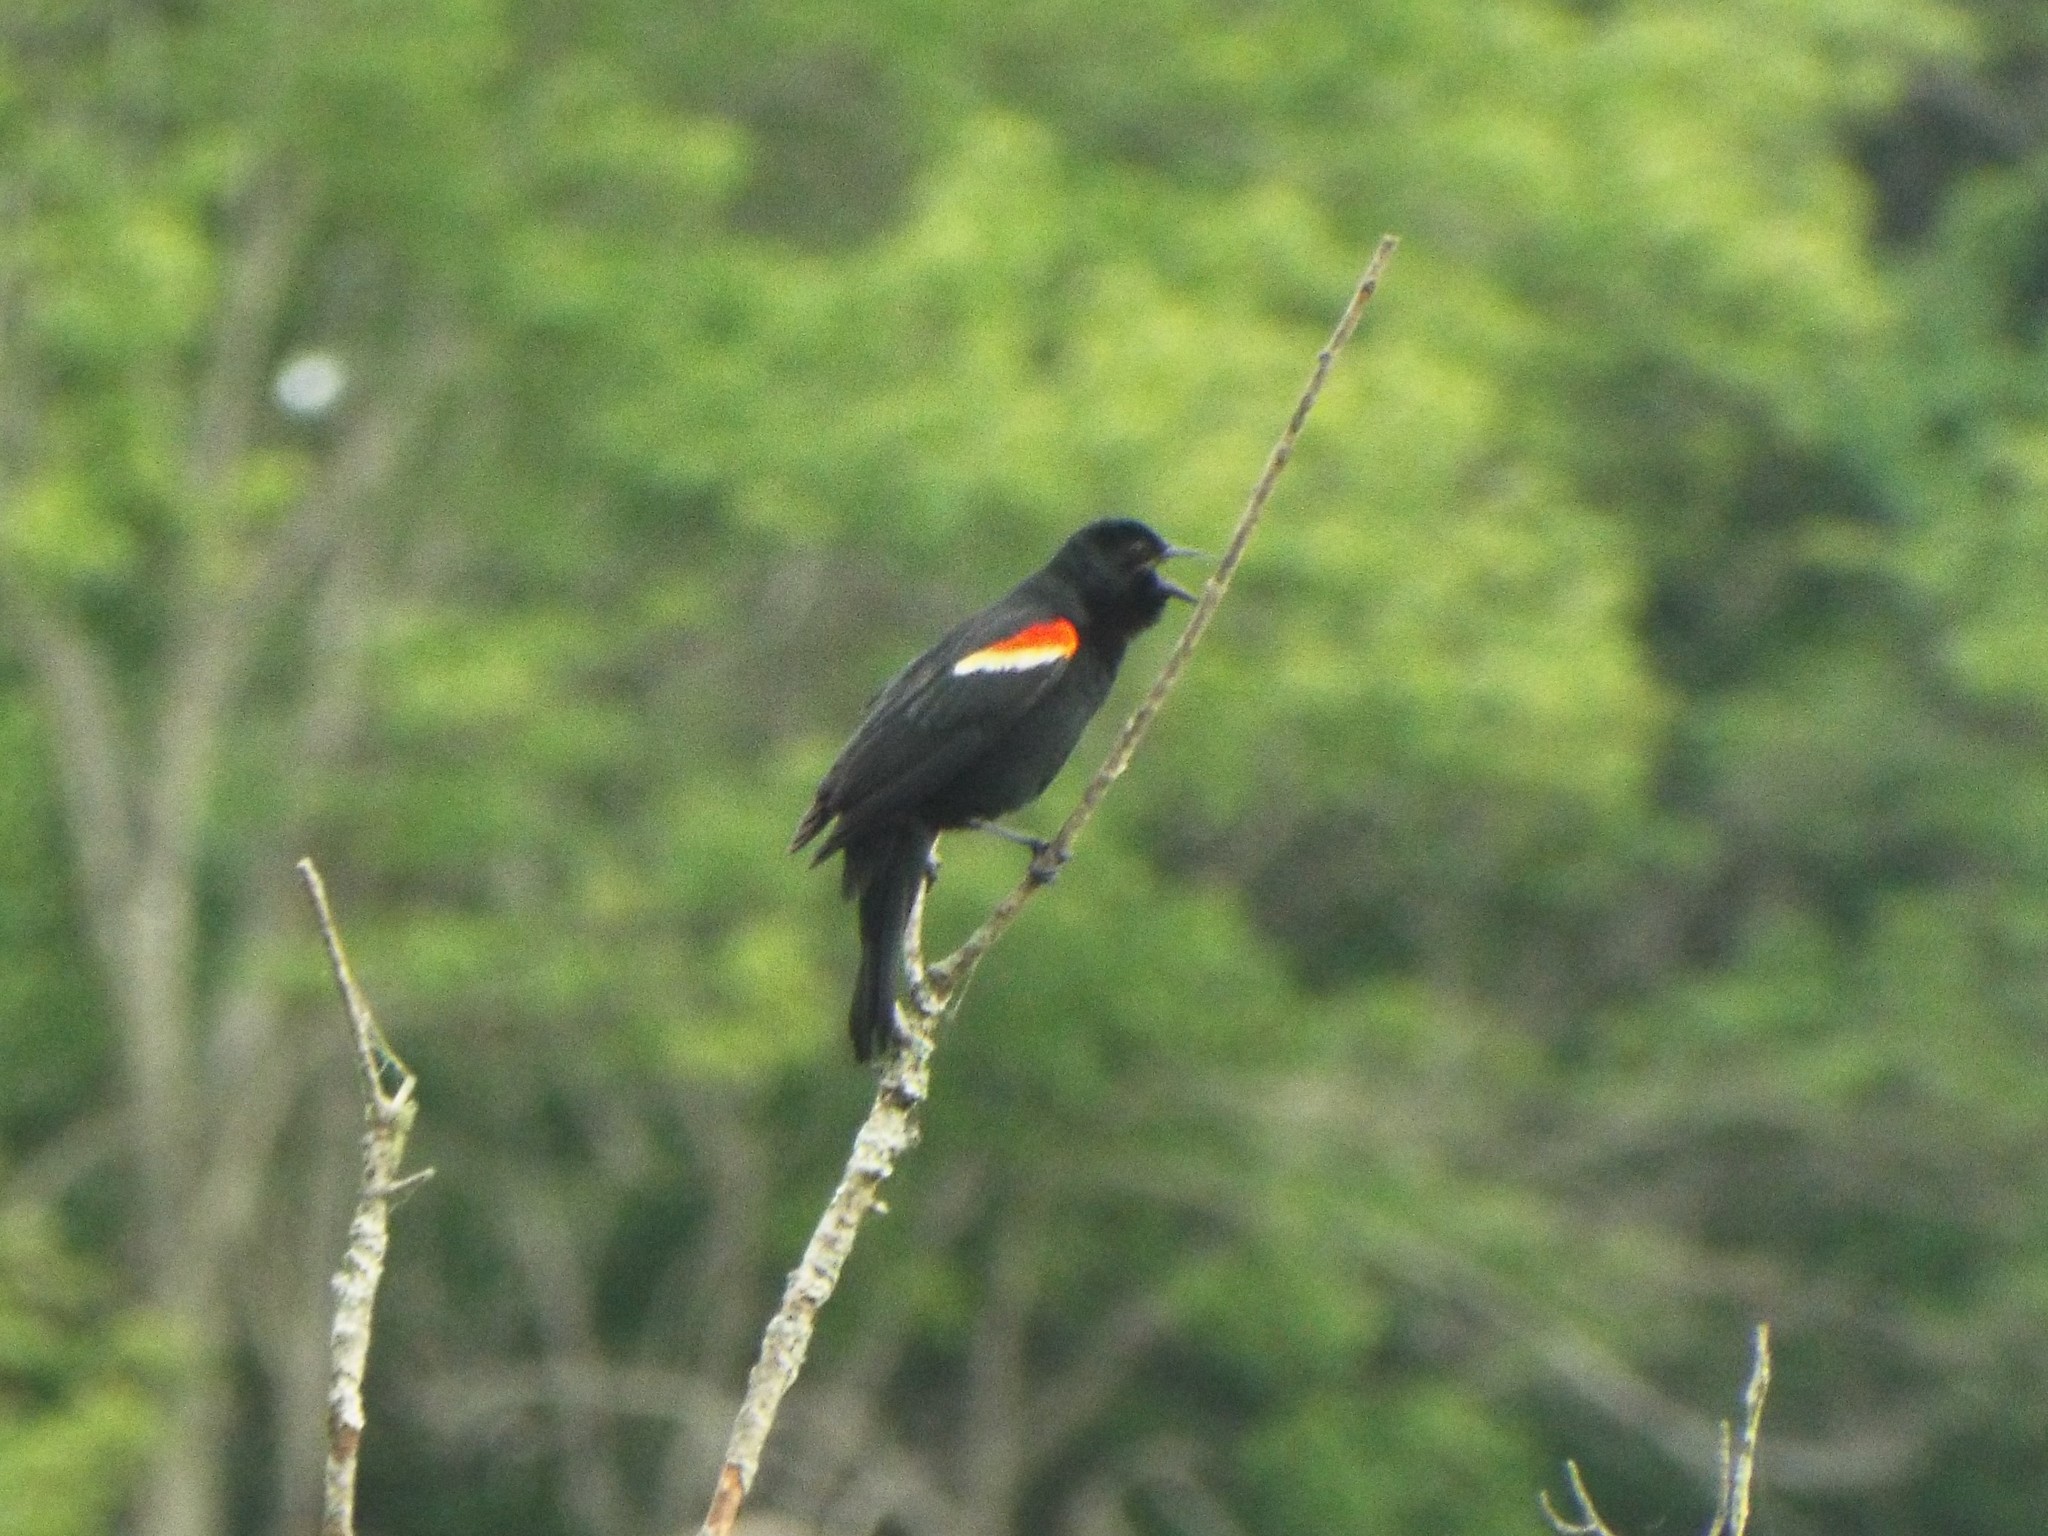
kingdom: Animalia
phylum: Chordata
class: Aves
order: Passeriformes
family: Icteridae
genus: Agelaius
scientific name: Agelaius phoeniceus
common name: Red-winged blackbird
